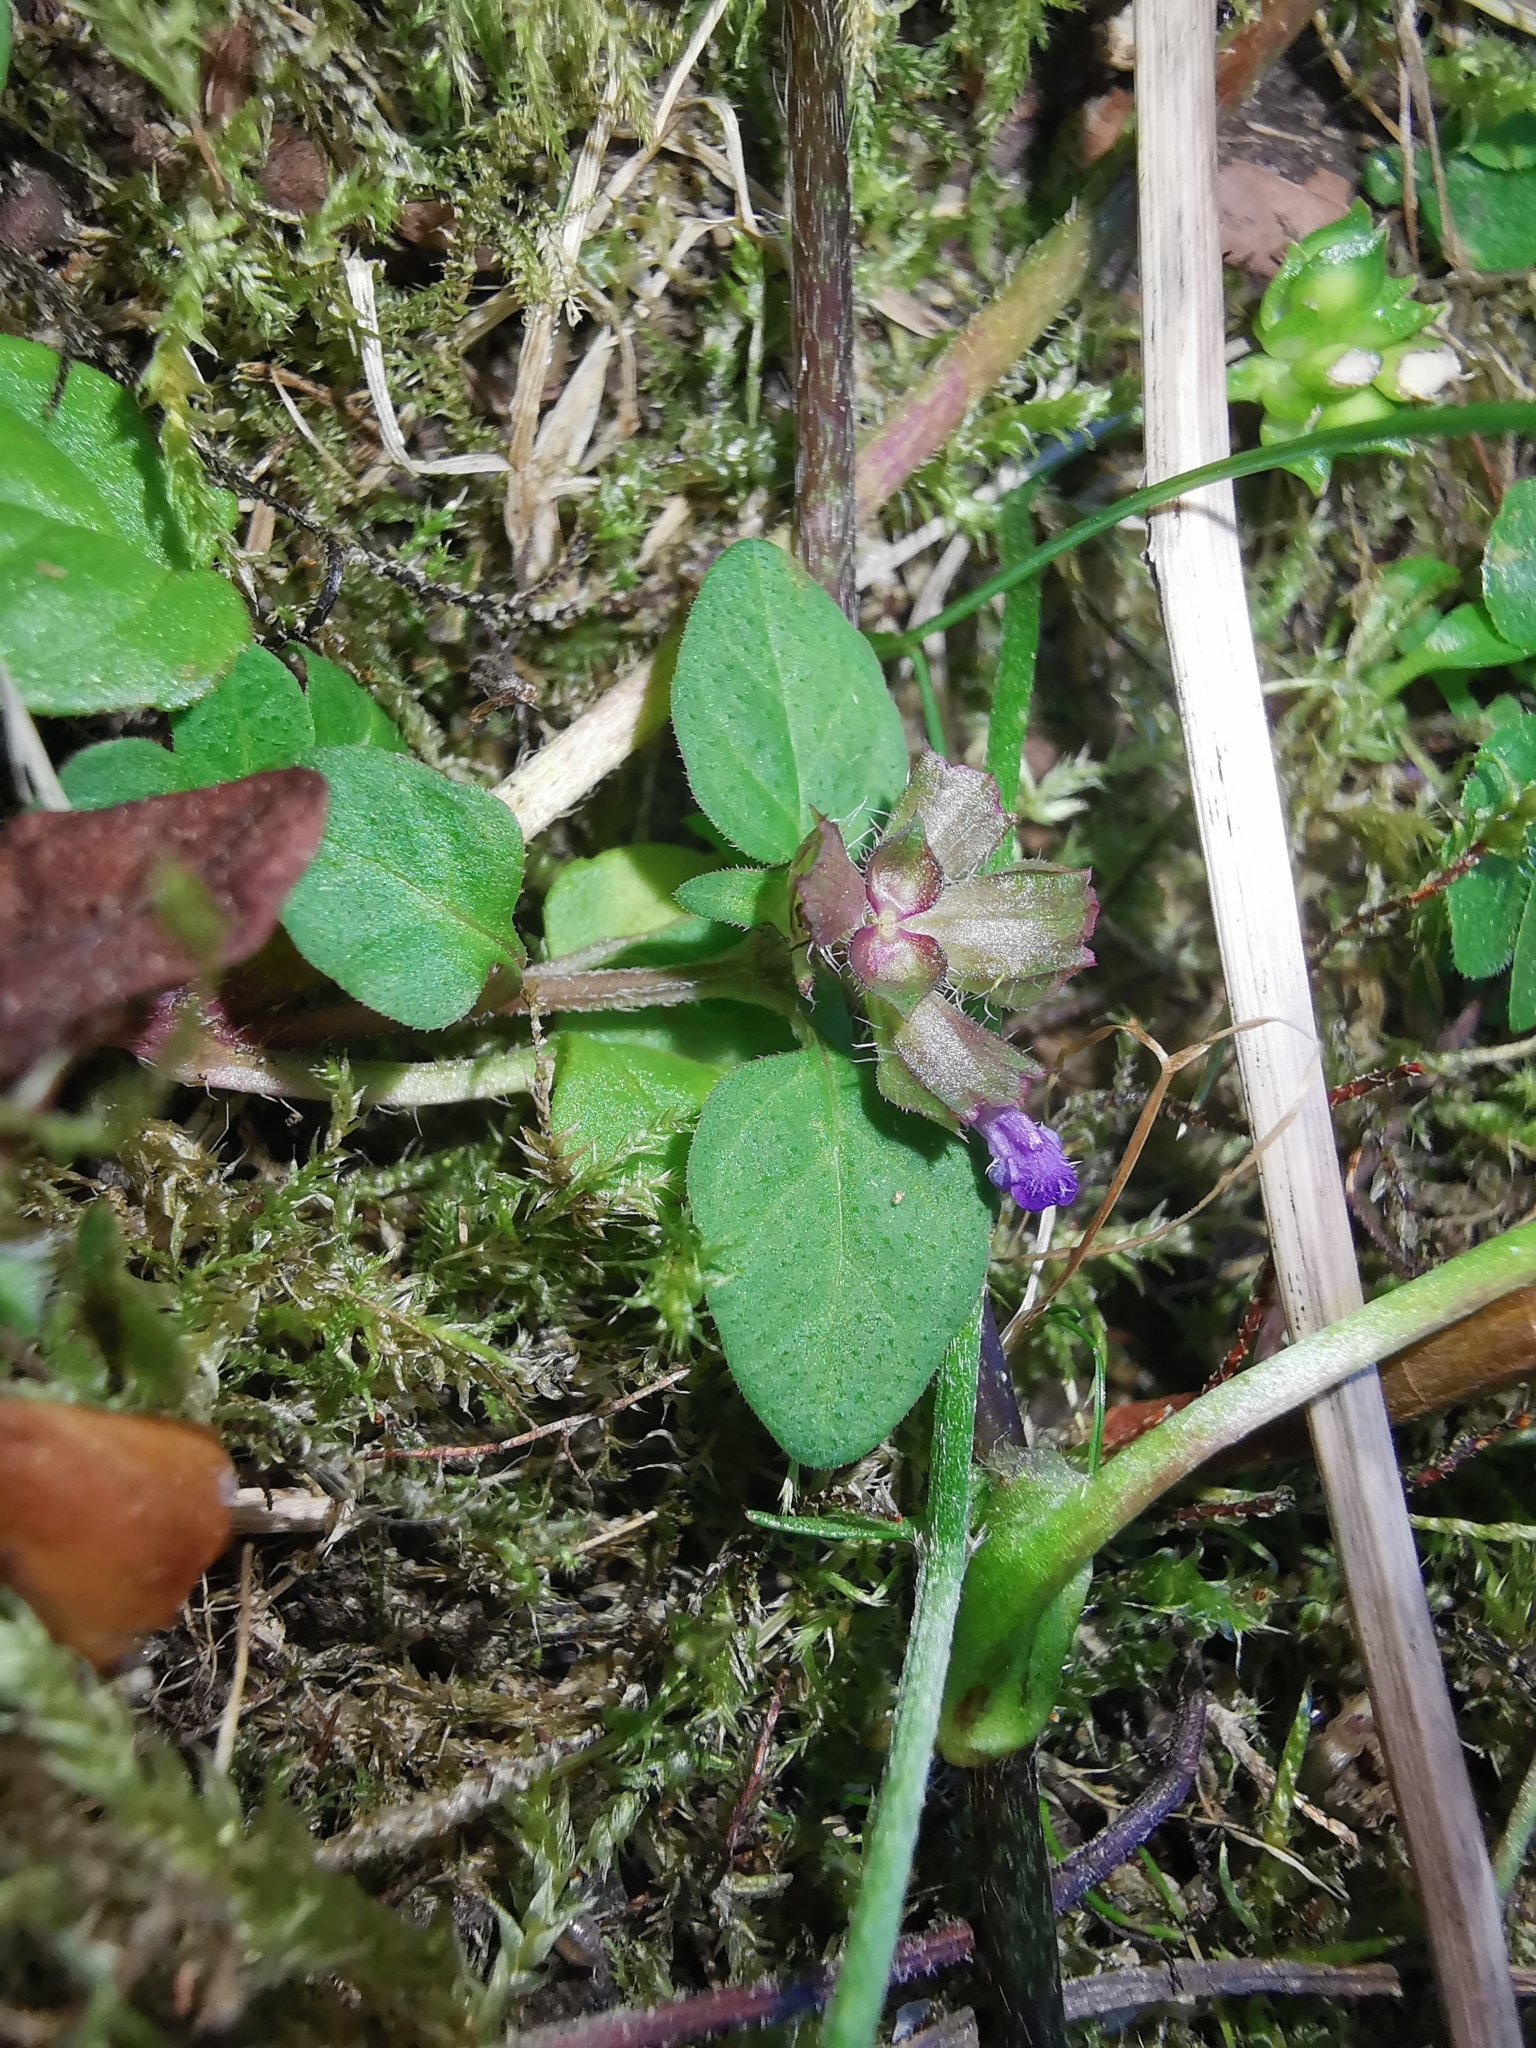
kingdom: Plantae
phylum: Tracheophyta
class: Magnoliopsida
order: Lamiales
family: Lamiaceae
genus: Prunella
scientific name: Prunella vulgaris
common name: Heal-all
